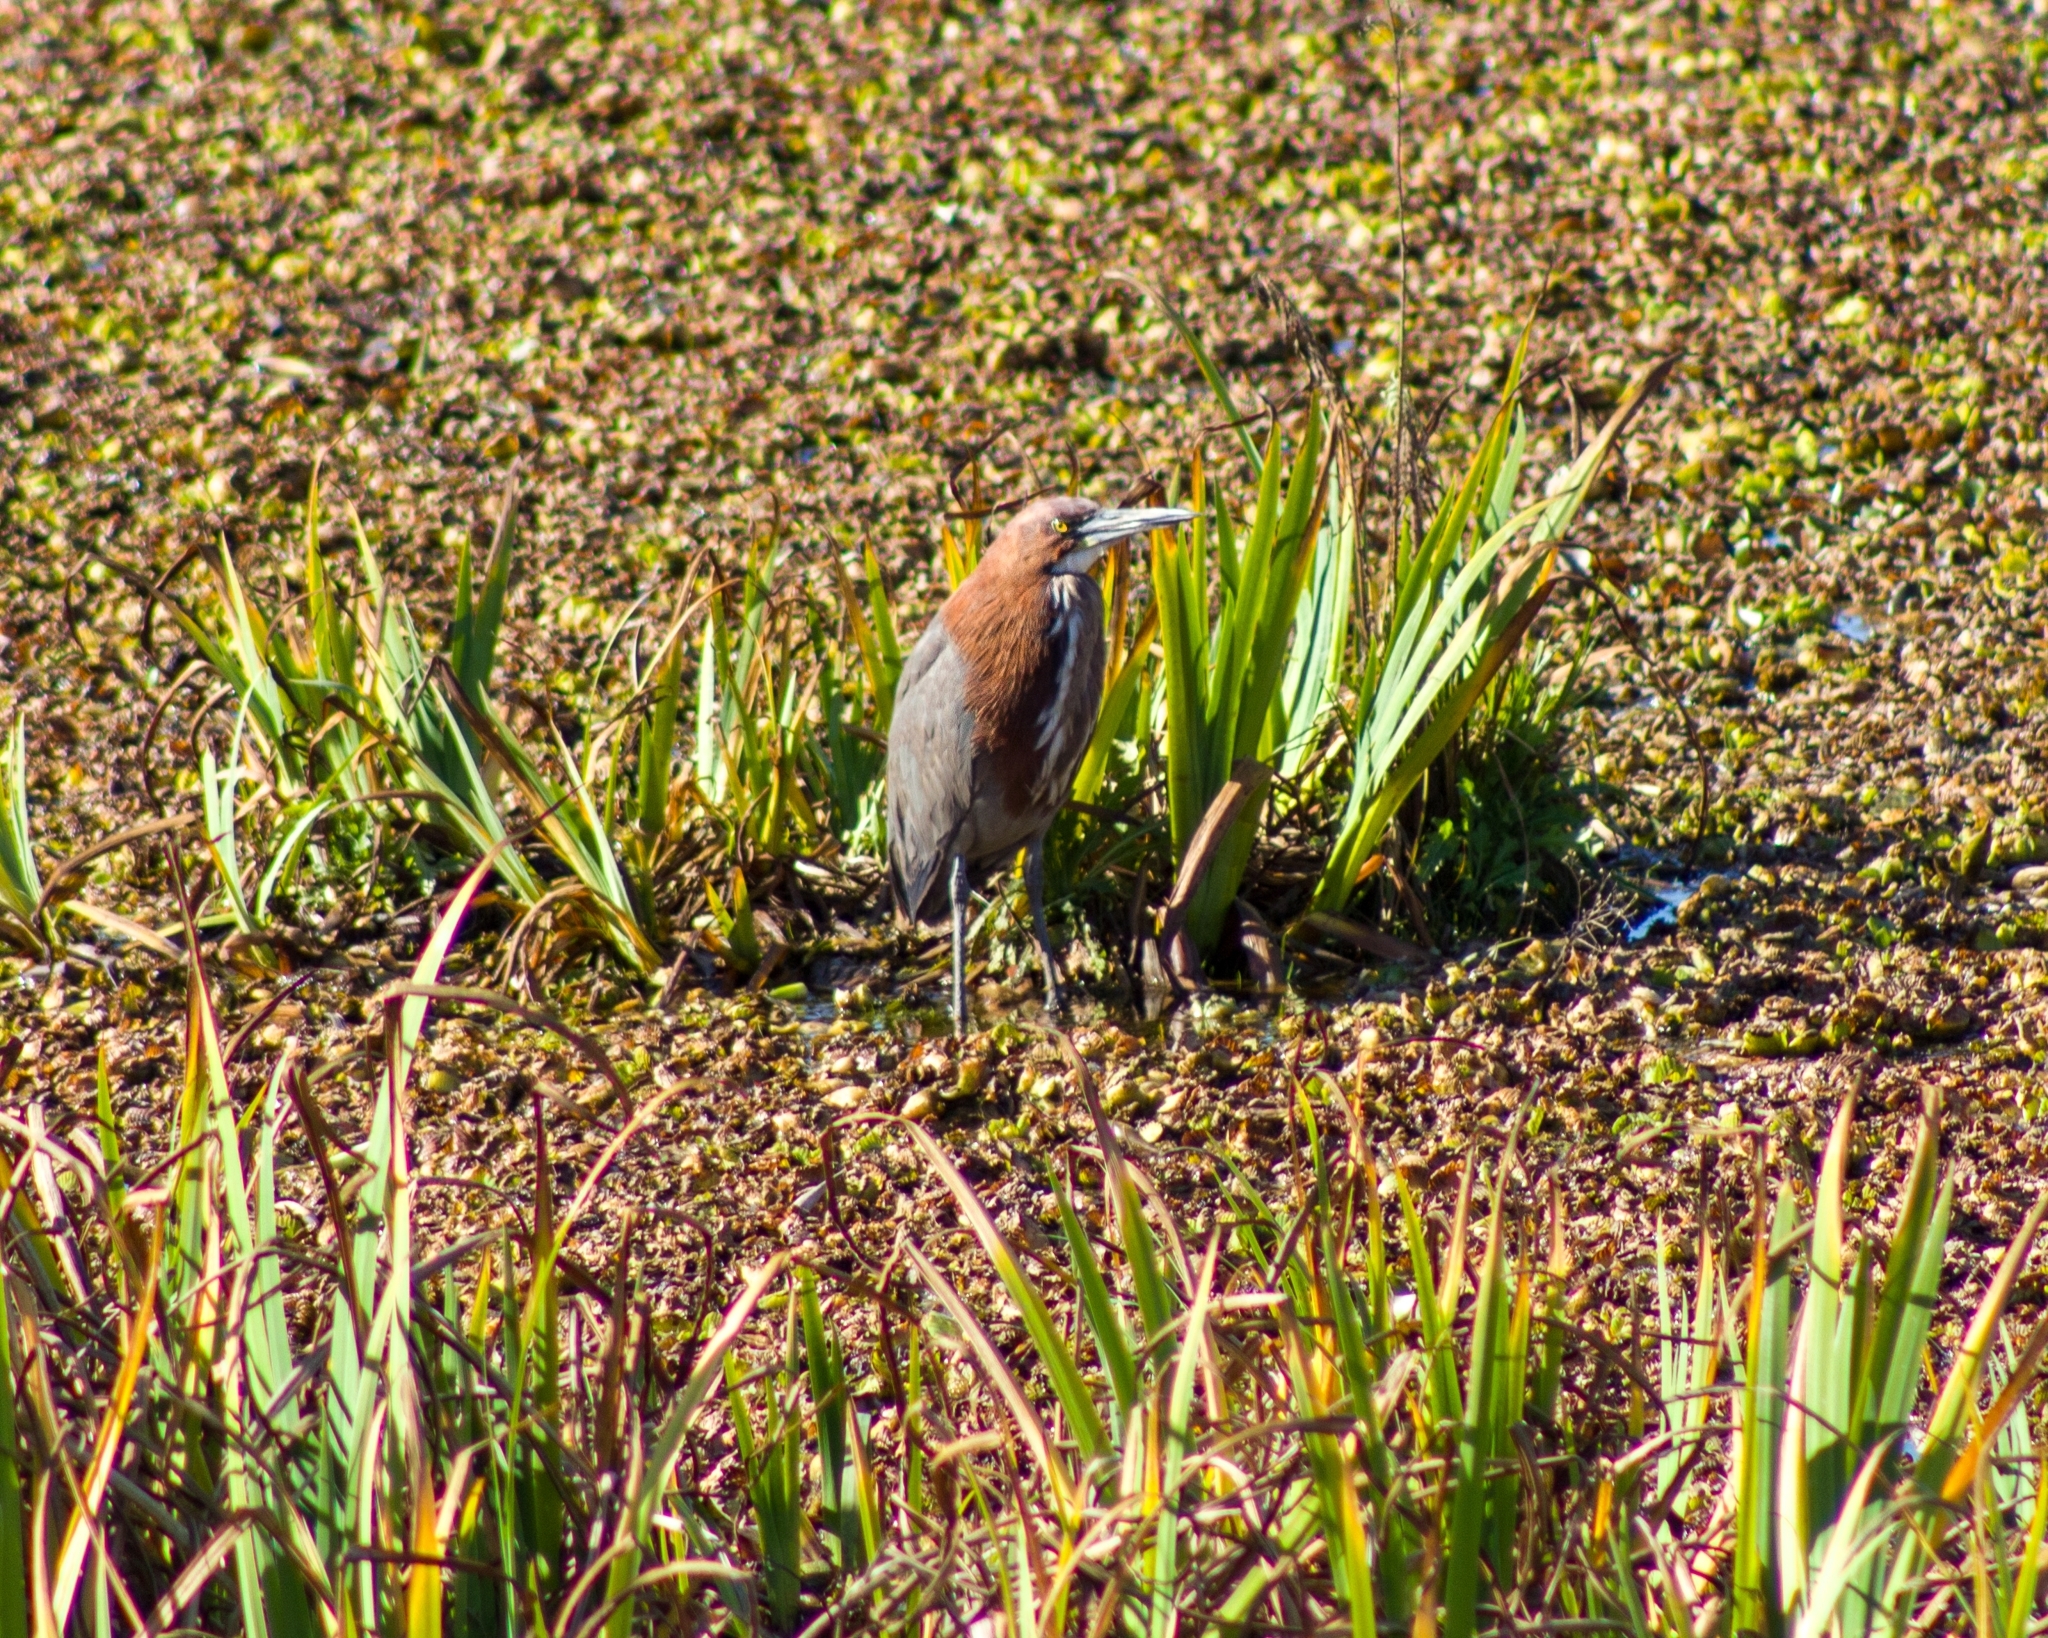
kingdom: Animalia
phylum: Chordata
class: Aves
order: Pelecaniformes
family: Ardeidae
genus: Tigrisoma
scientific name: Tigrisoma lineatum
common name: Rufescent tiger-heron
